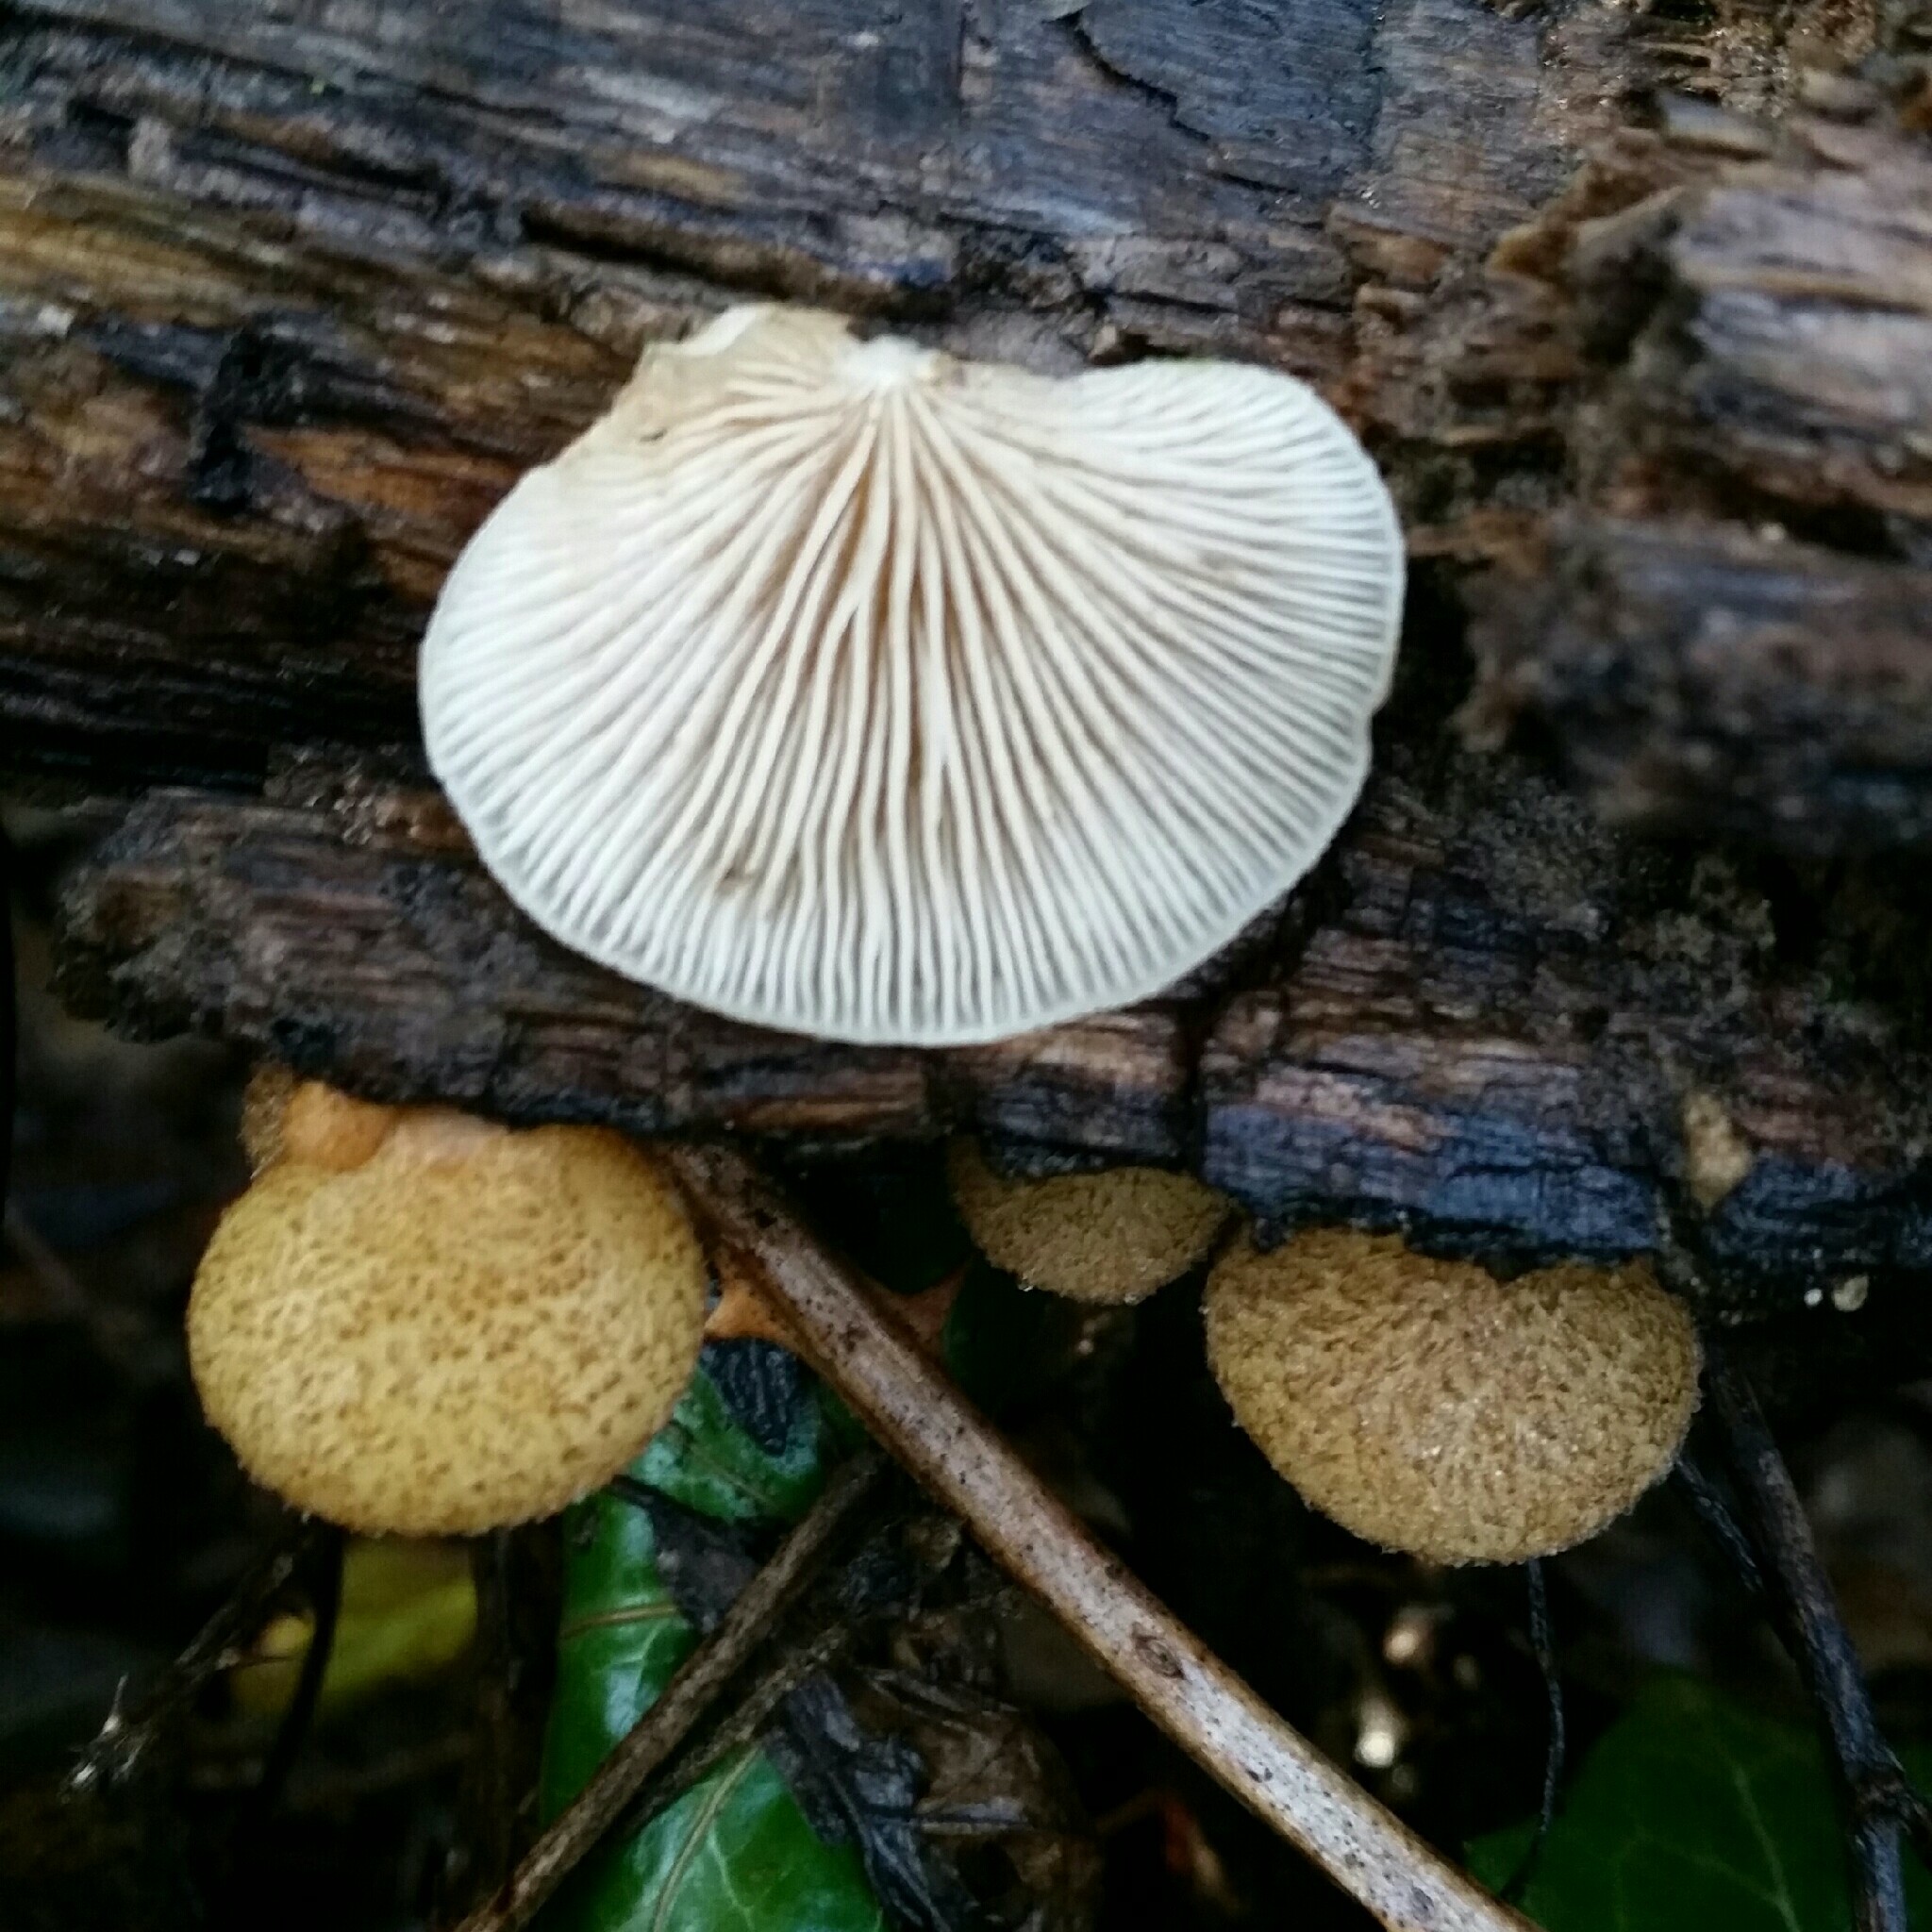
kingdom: Fungi
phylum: Basidiomycota
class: Agaricomycetes
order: Agaricales
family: Crepidotaceae
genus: Crepidotus
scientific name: Crepidotus mollis
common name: Peeling oysterling
